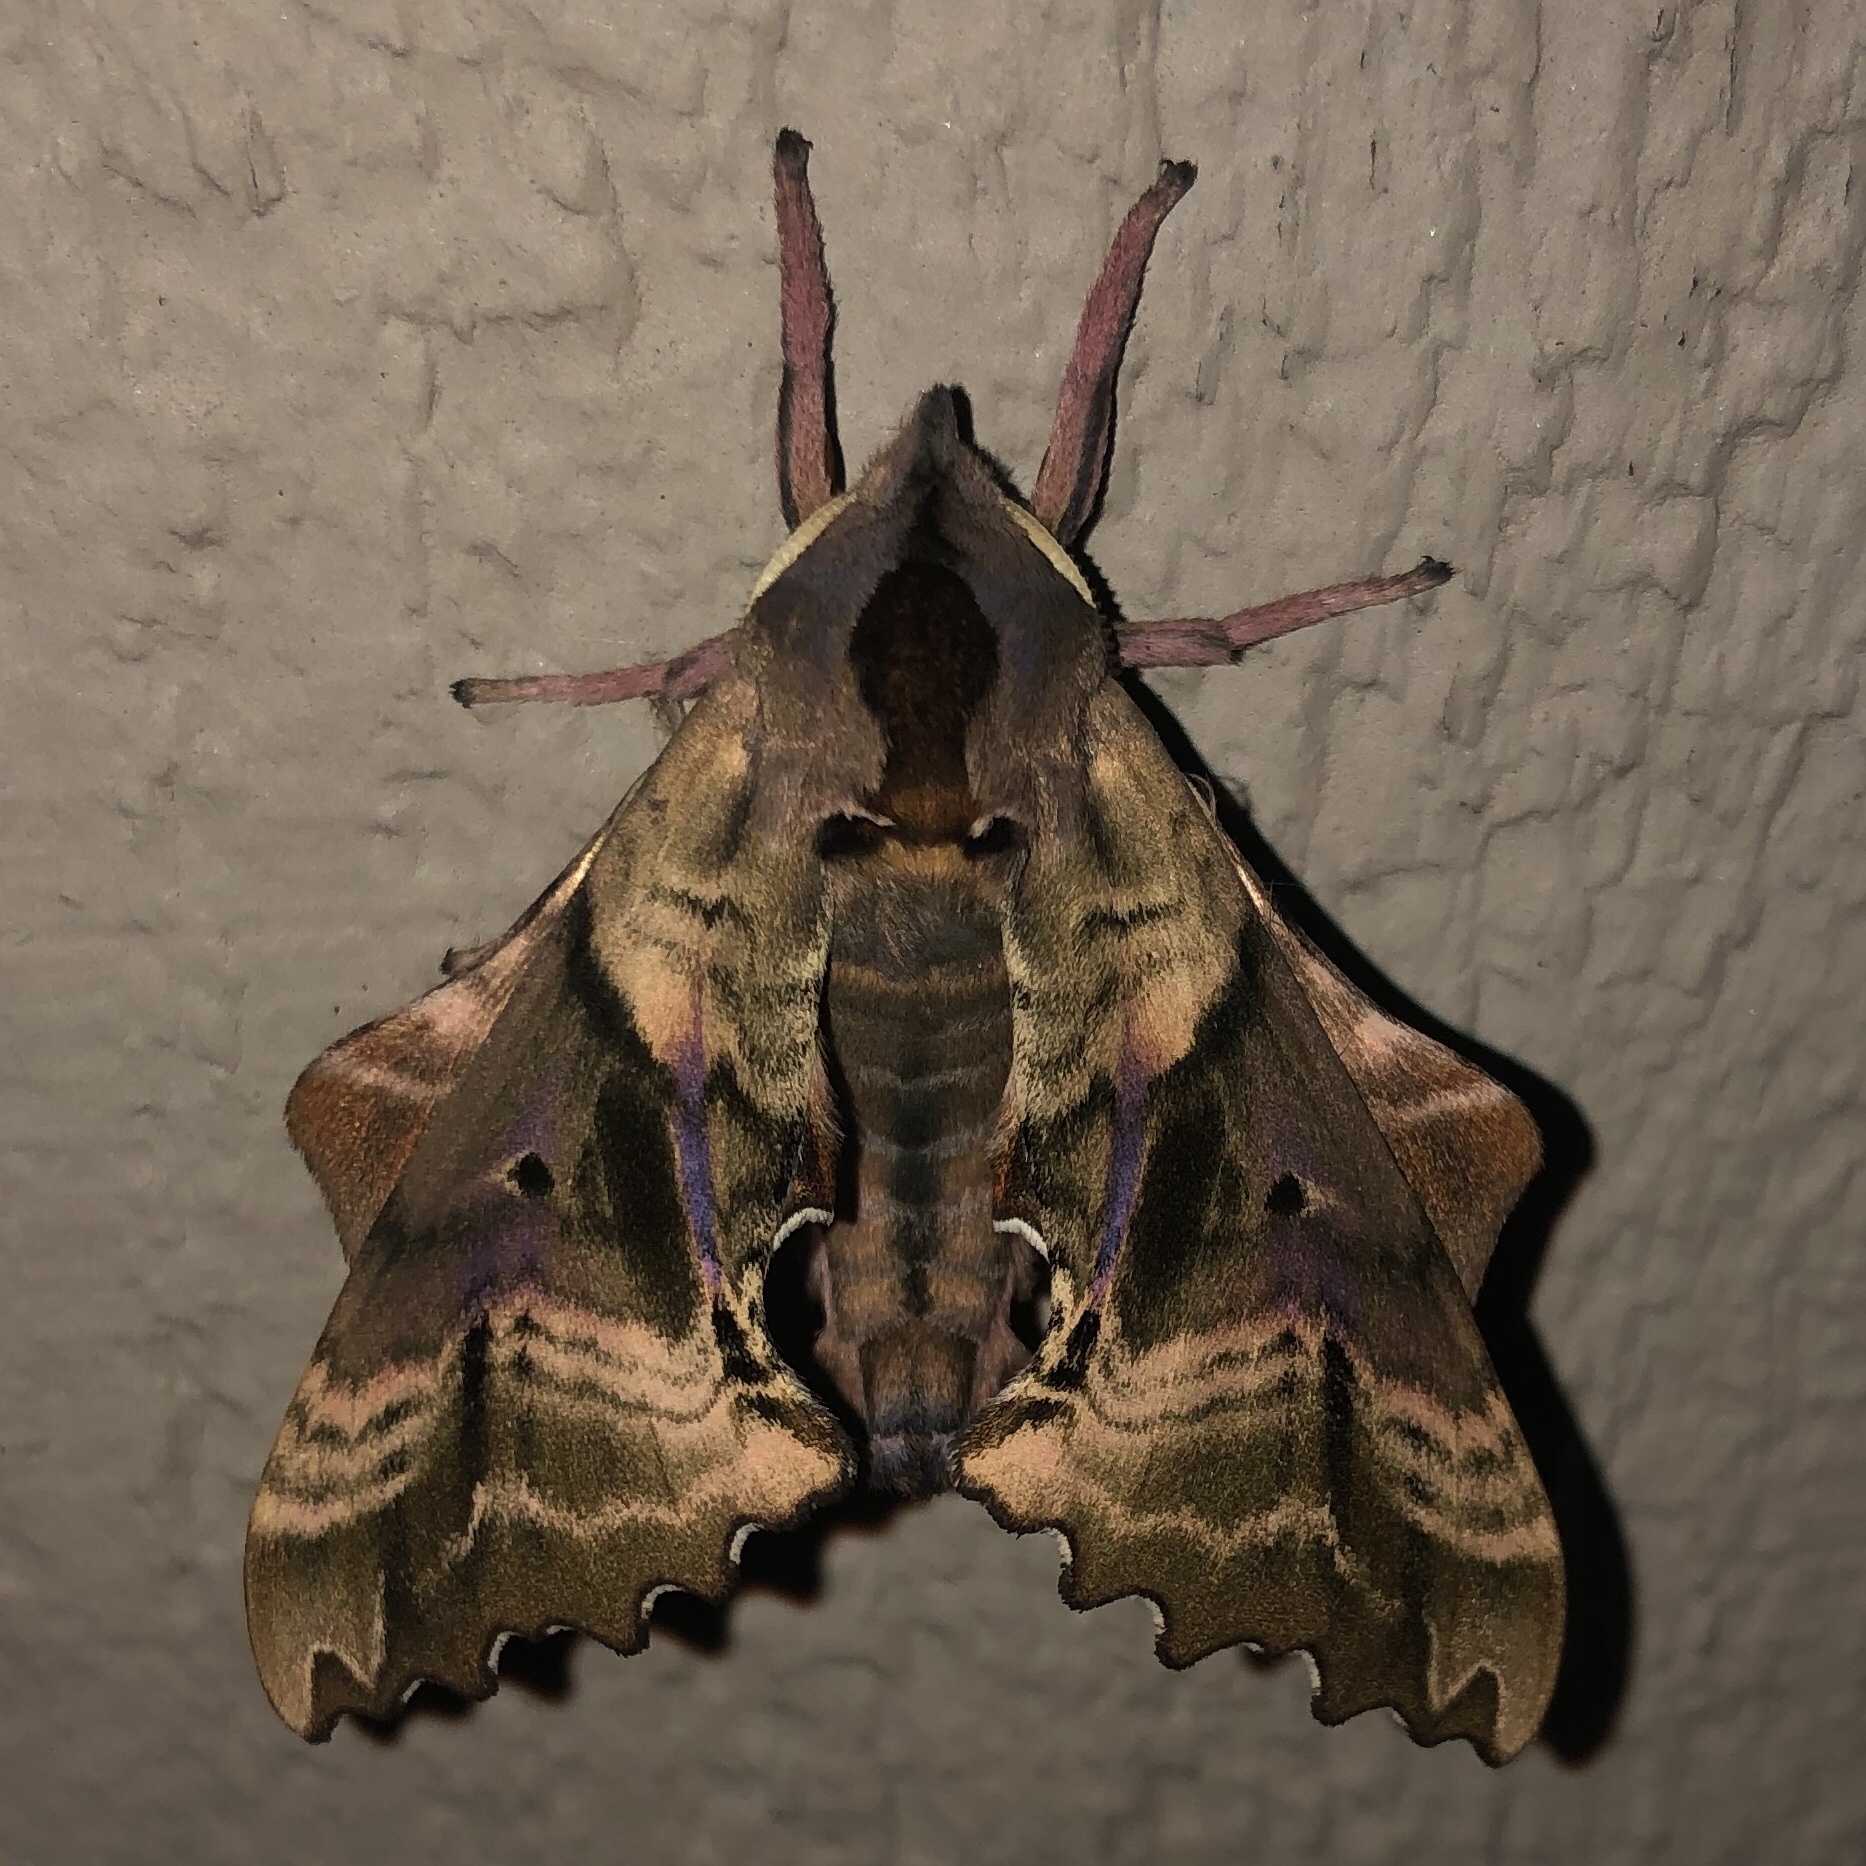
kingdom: Animalia
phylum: Arthropoda
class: Insecta
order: Lepidoptera
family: Sphingidae
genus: Paonias
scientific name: Paonias excaecata
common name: Blind-eyed sphinx
